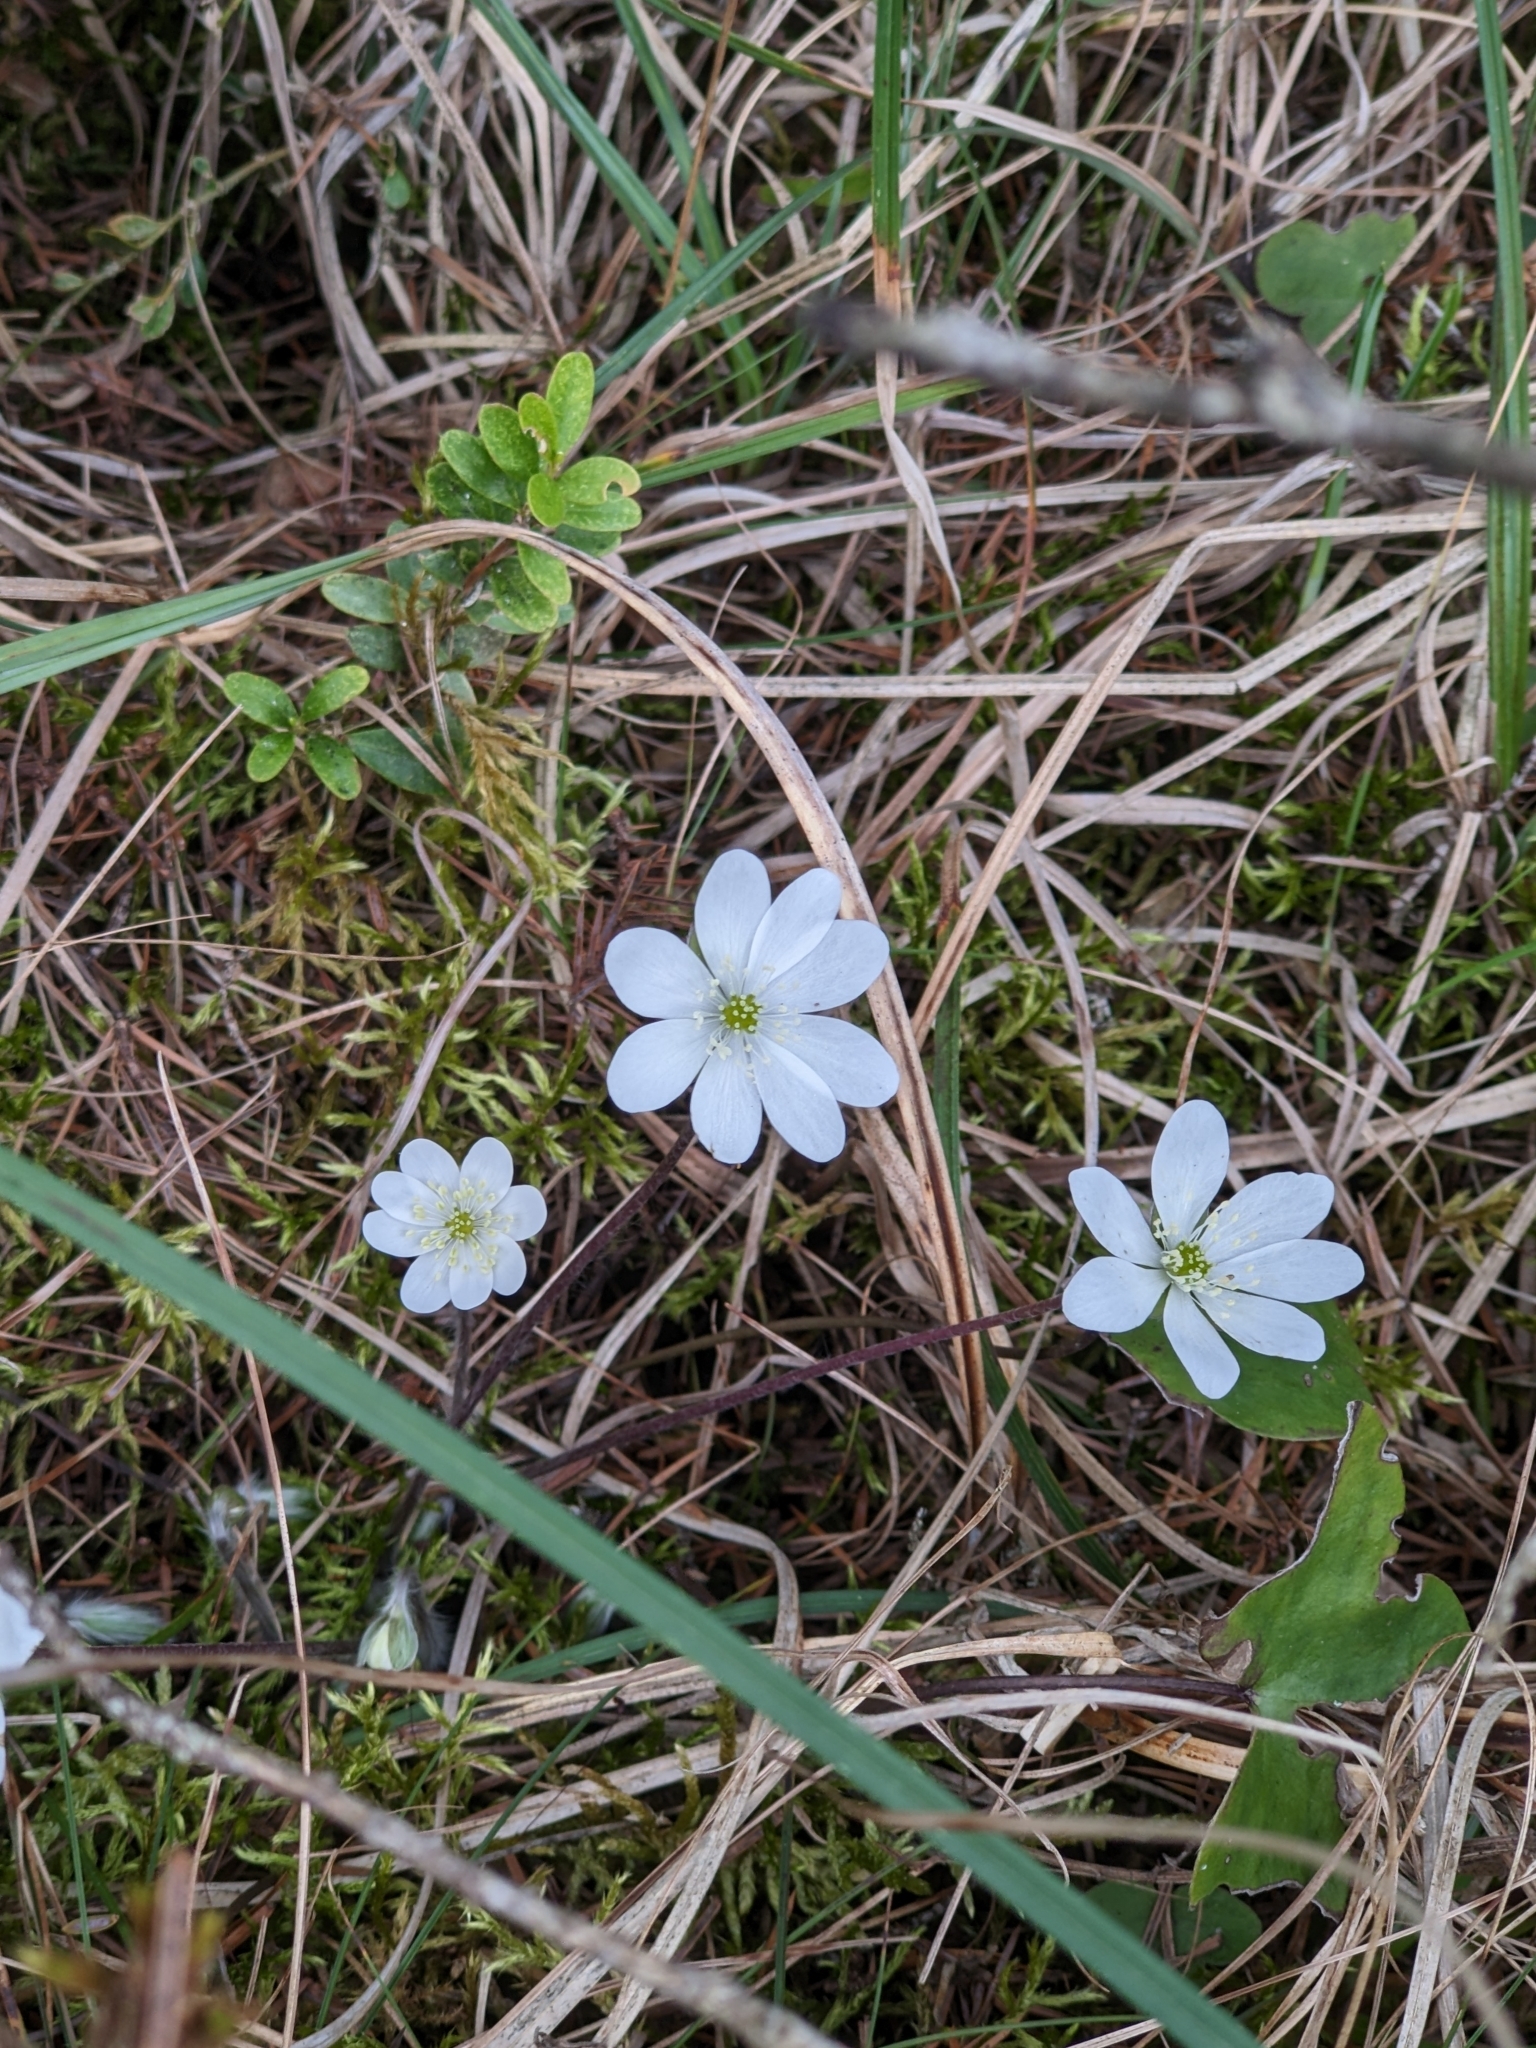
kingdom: Plantae
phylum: Tracheophyta
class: Magnoliopsida
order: Ranunculales
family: Ranunculaceae
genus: Hepatica
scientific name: Hepatica nobilis
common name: Liverleaf
